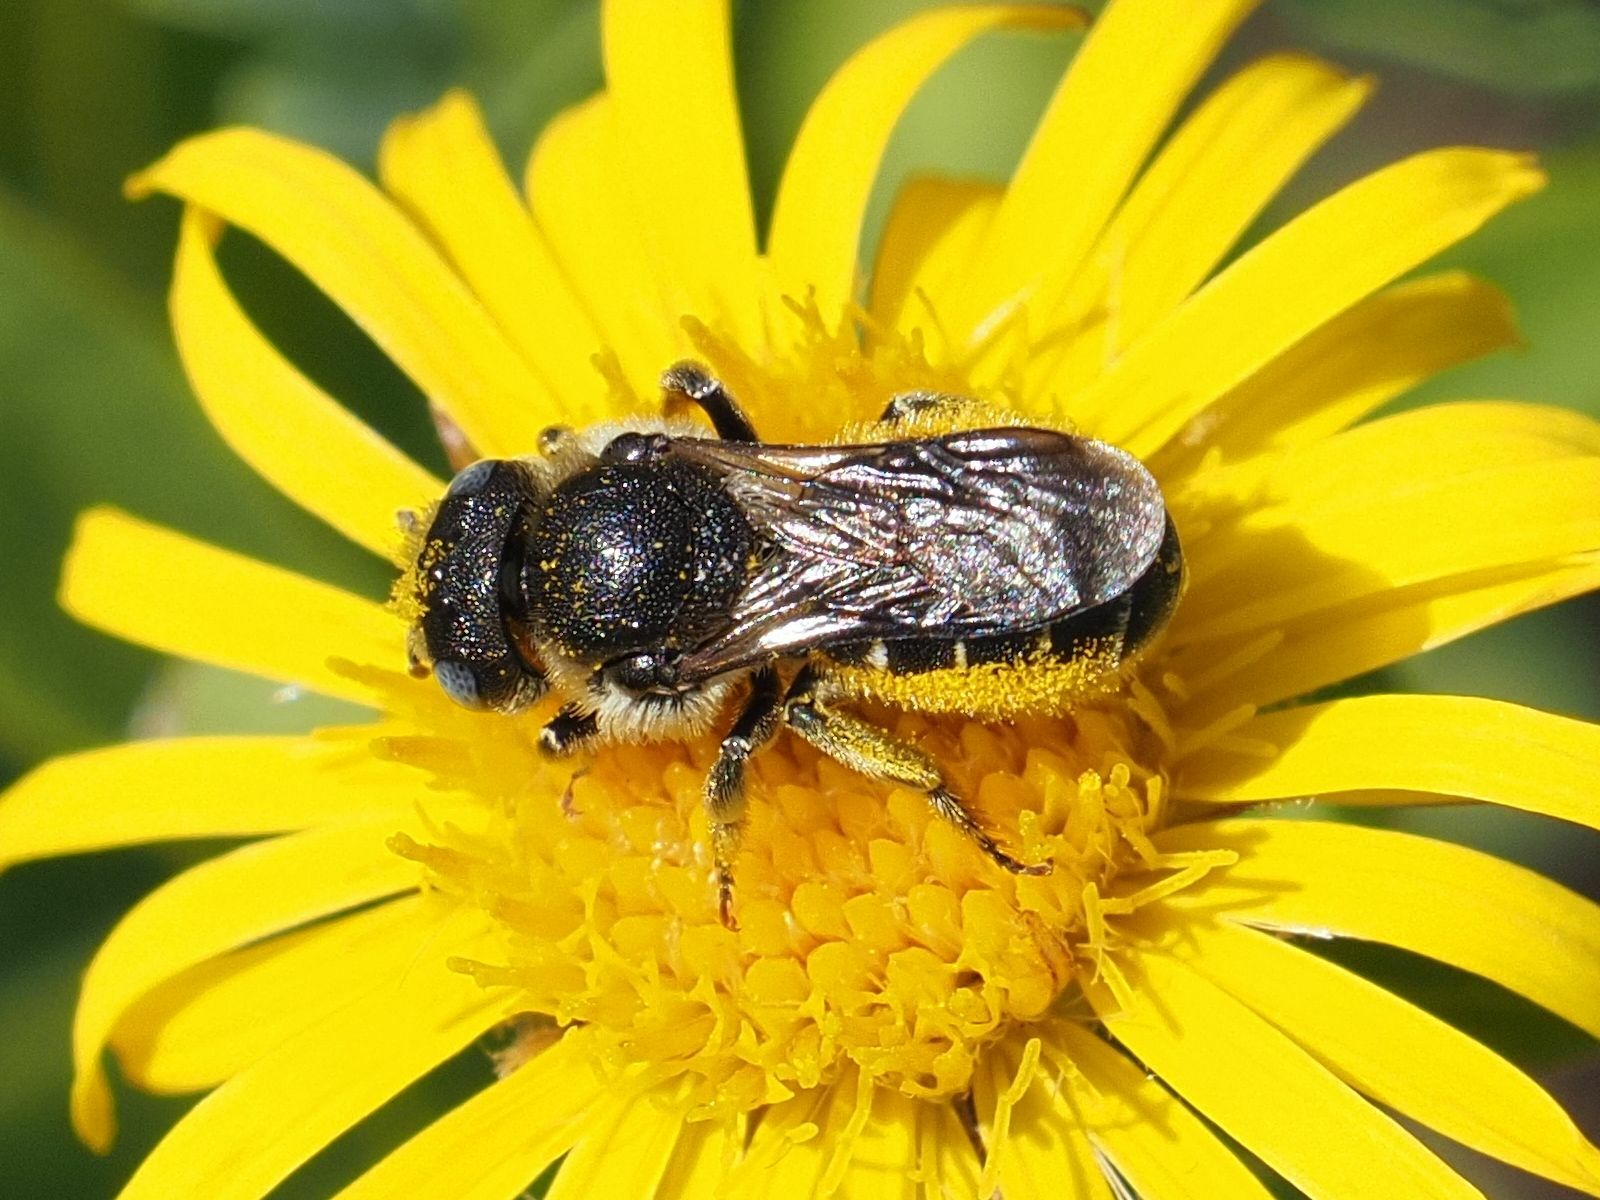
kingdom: Animalia
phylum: Arthropoda
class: Insecta
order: Hymenoptera
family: Megachilidae
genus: Osmia
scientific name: Osmia spinulosa
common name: Spined mason bee
